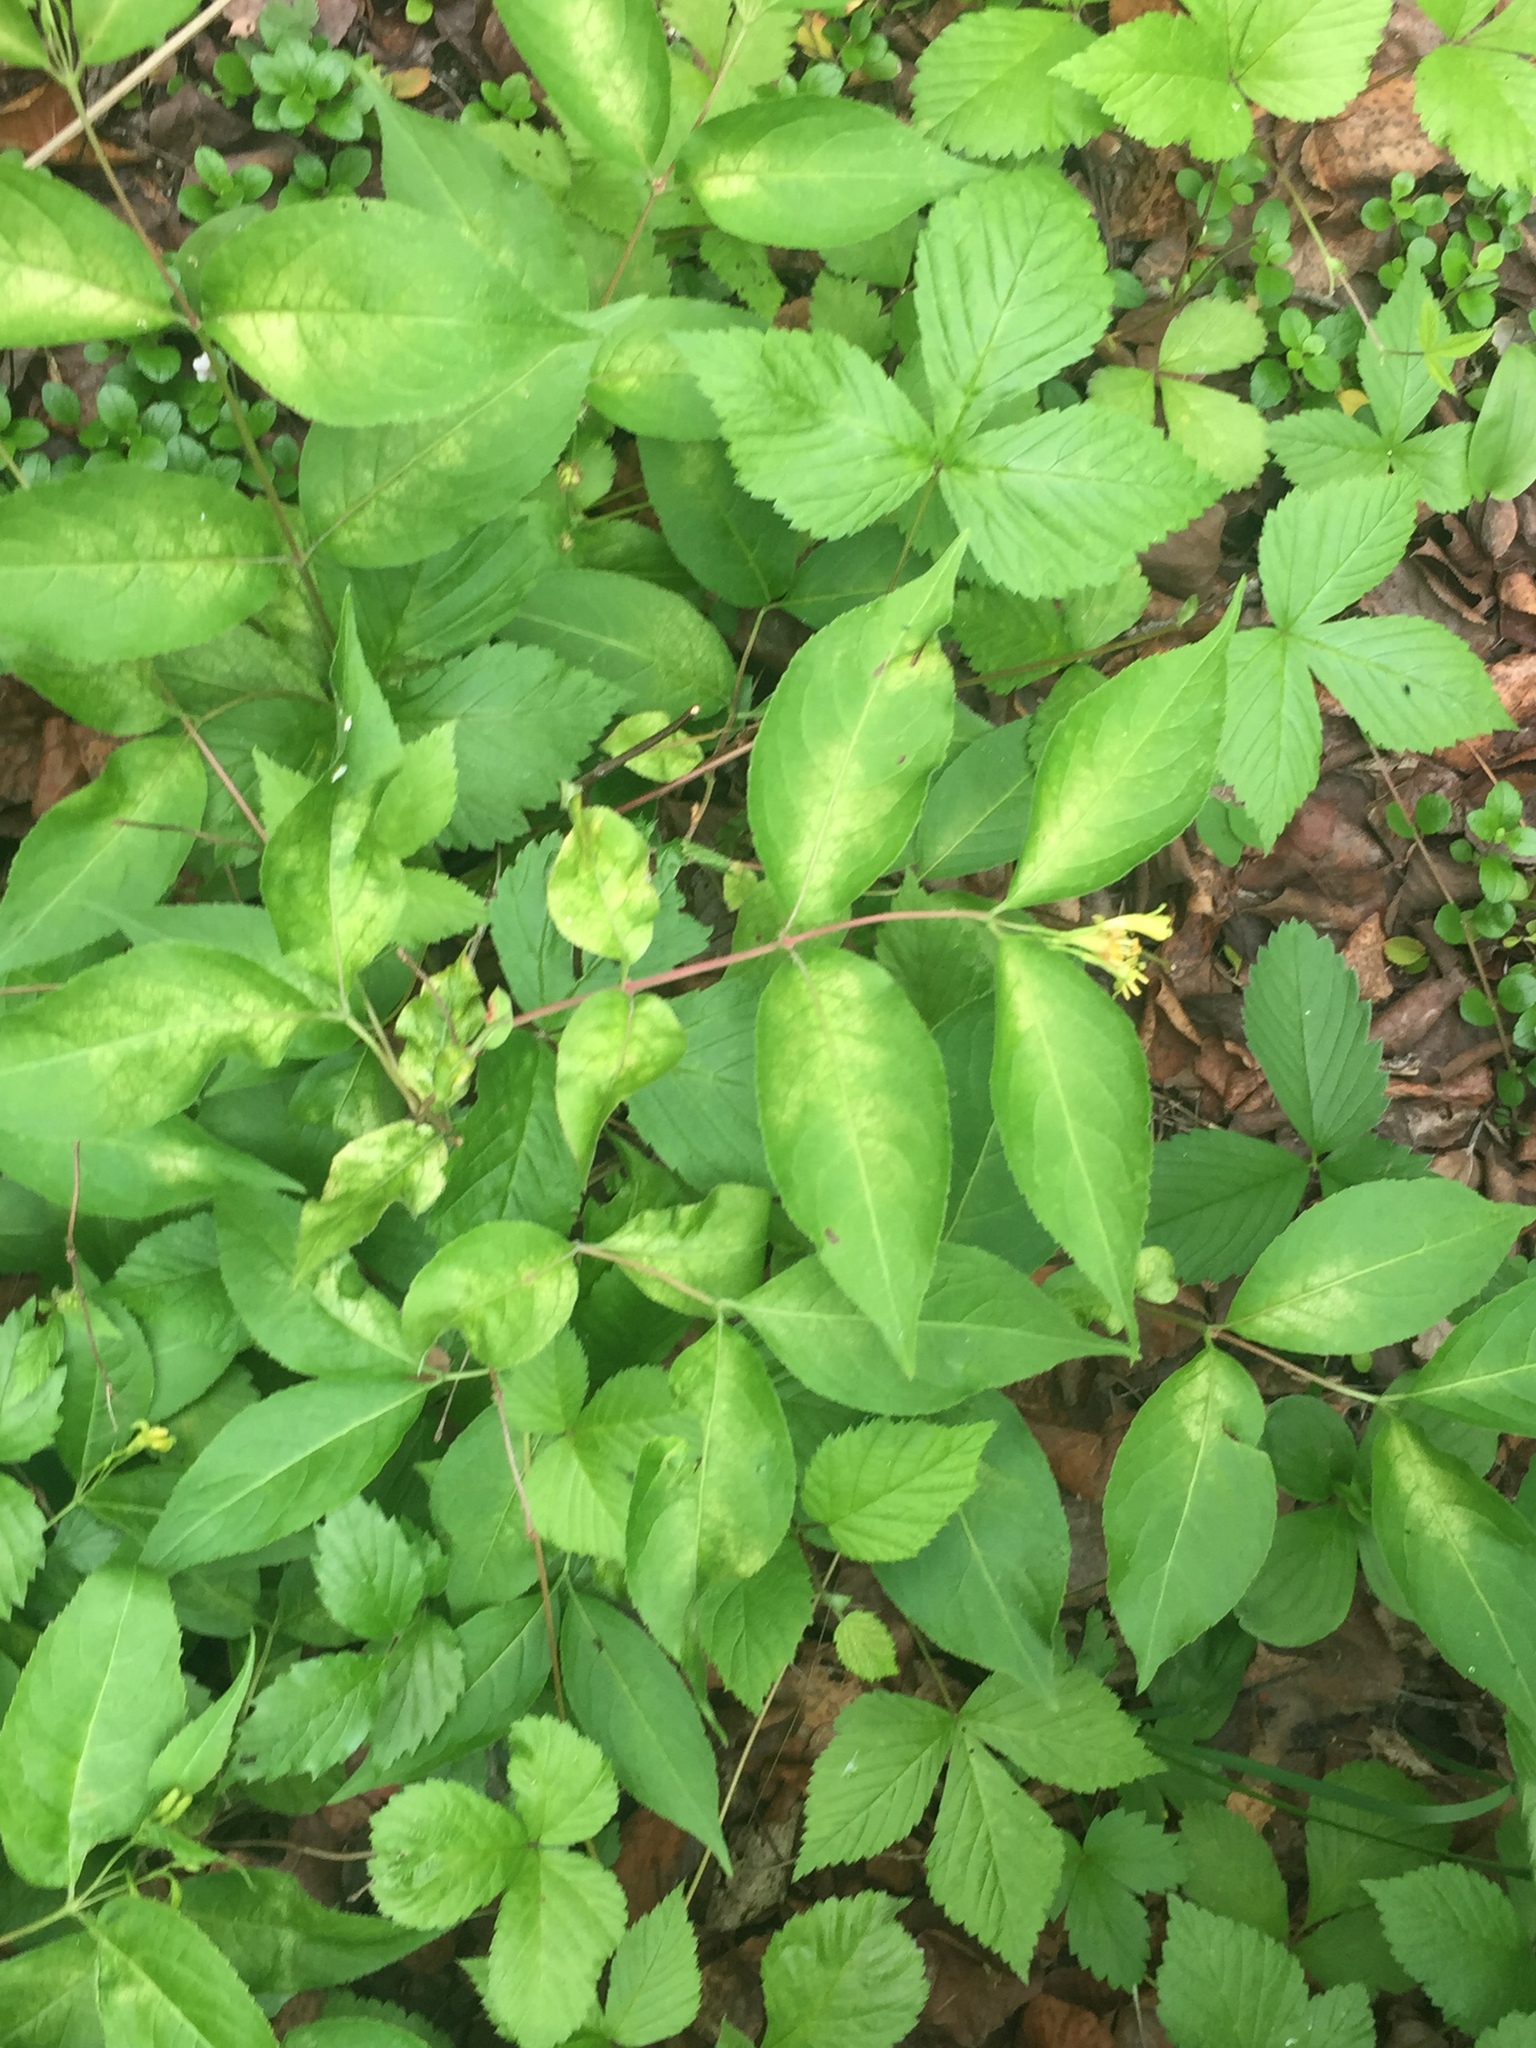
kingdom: Plantae
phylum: Tracheophyta
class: Magnoliopsida
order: Dipsacales
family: Caprifoliaceae
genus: Diervilla
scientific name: Diervilla lonicera
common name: Bush-honeysuckle
